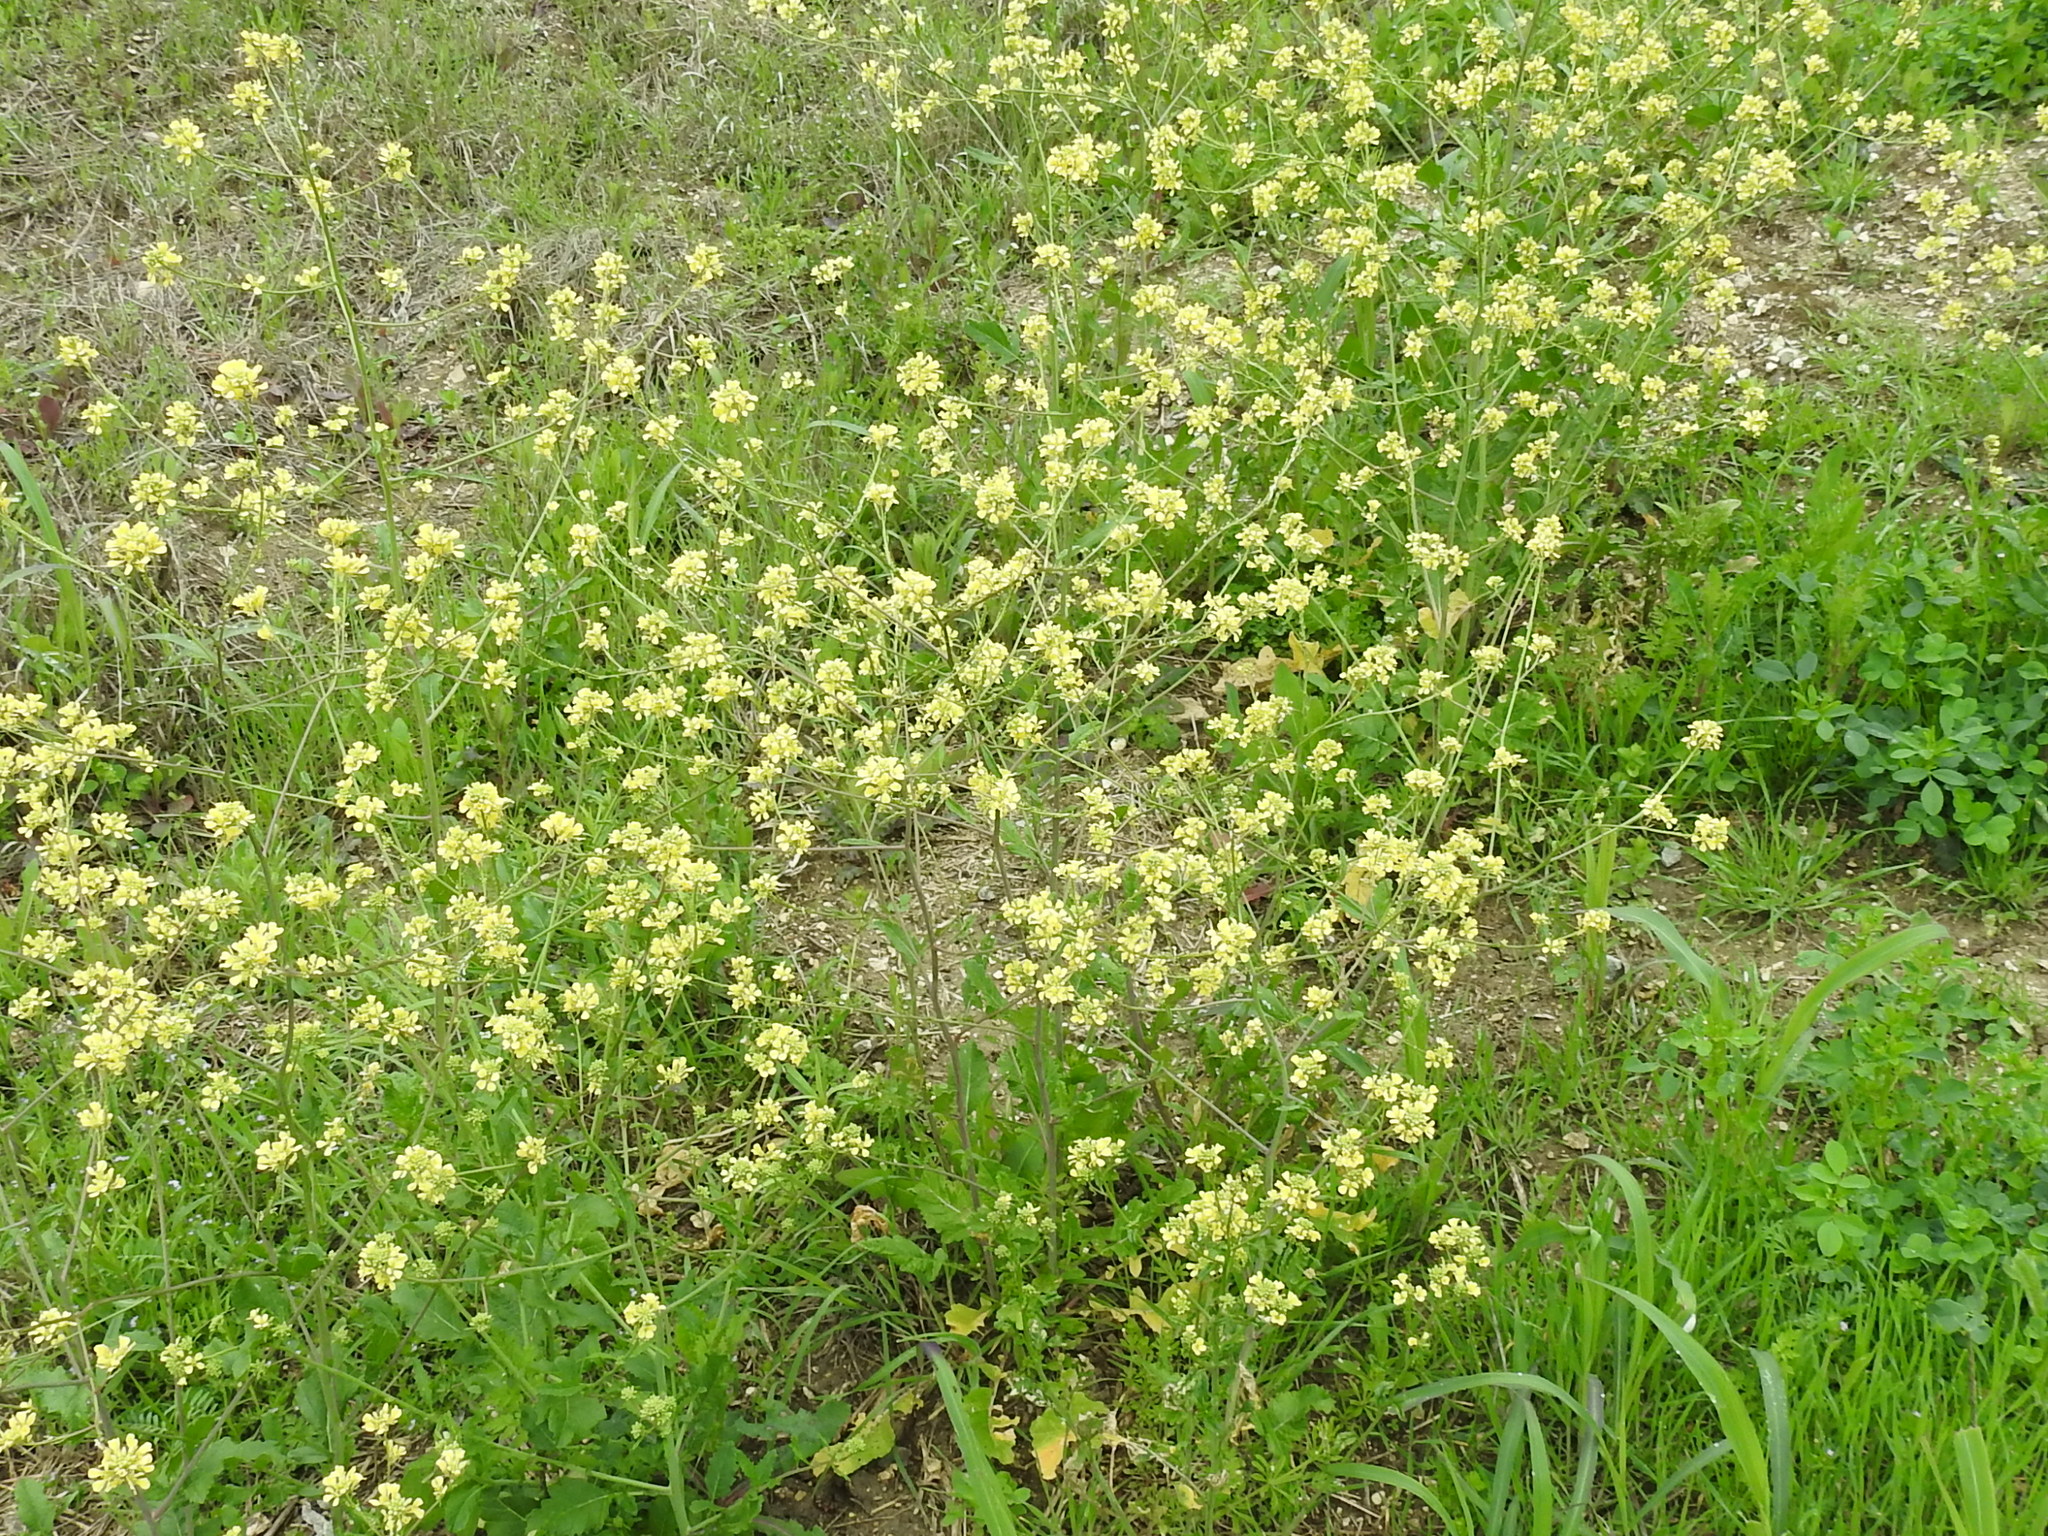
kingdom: Plantae
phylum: Tracheophyta
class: Magnoliopsida
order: Brassicales
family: Brassicaceae
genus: Rapistrum
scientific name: Rapistrum rugosum
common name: Annual bastardcabbage
